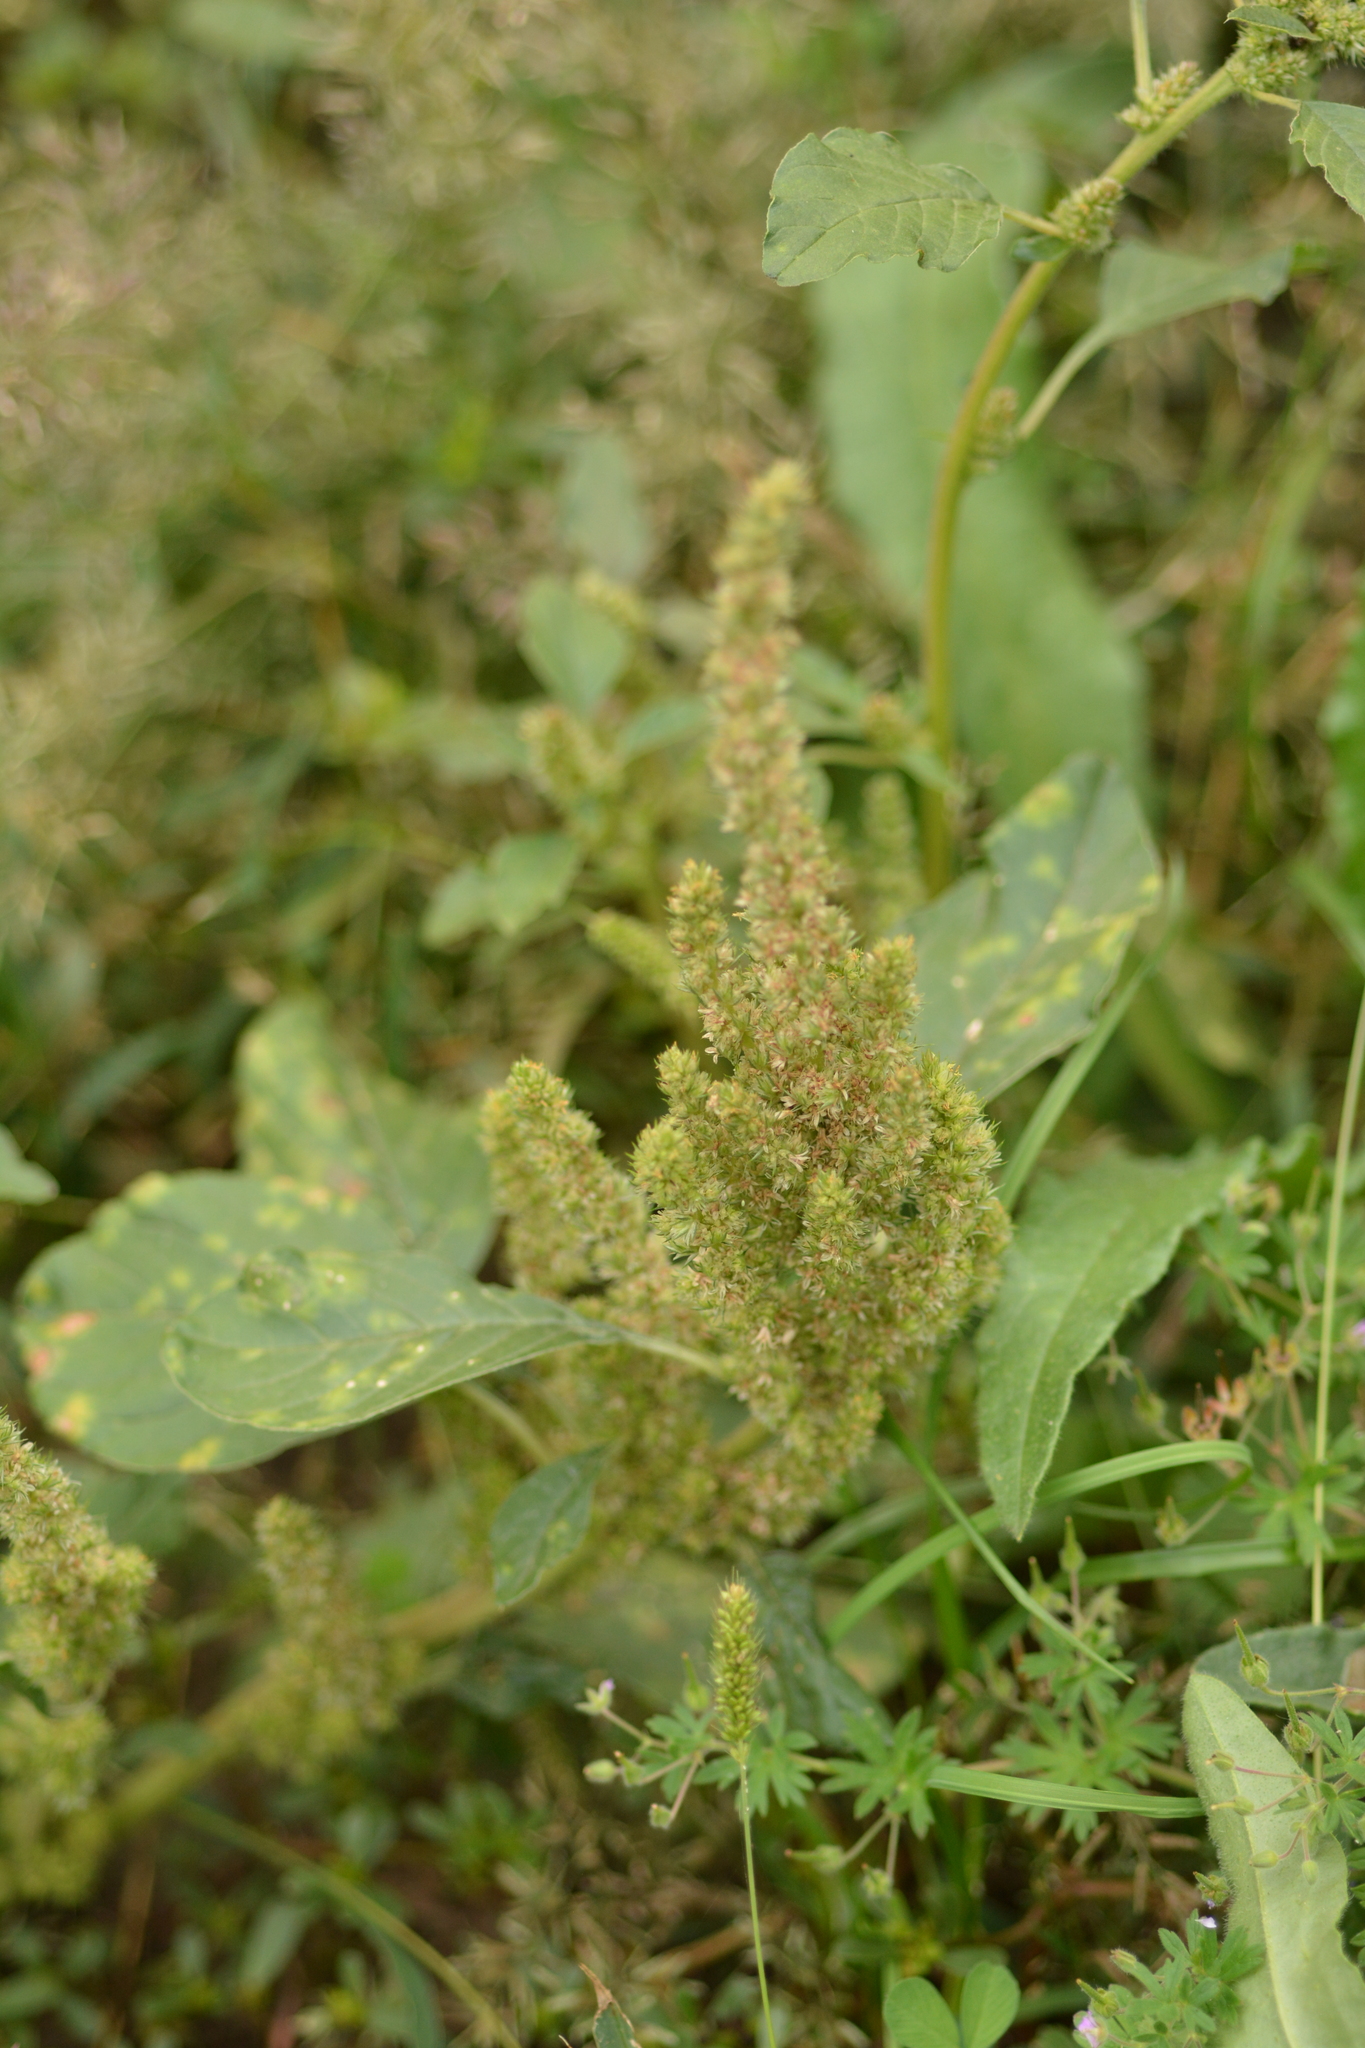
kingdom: Plantae
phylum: Tracheophyta
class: Magnoliopsida
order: Caryophyllales
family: Amaranthaceae
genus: Amaranthus
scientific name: Amaranthus retroflexus
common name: Redroot amaranth
